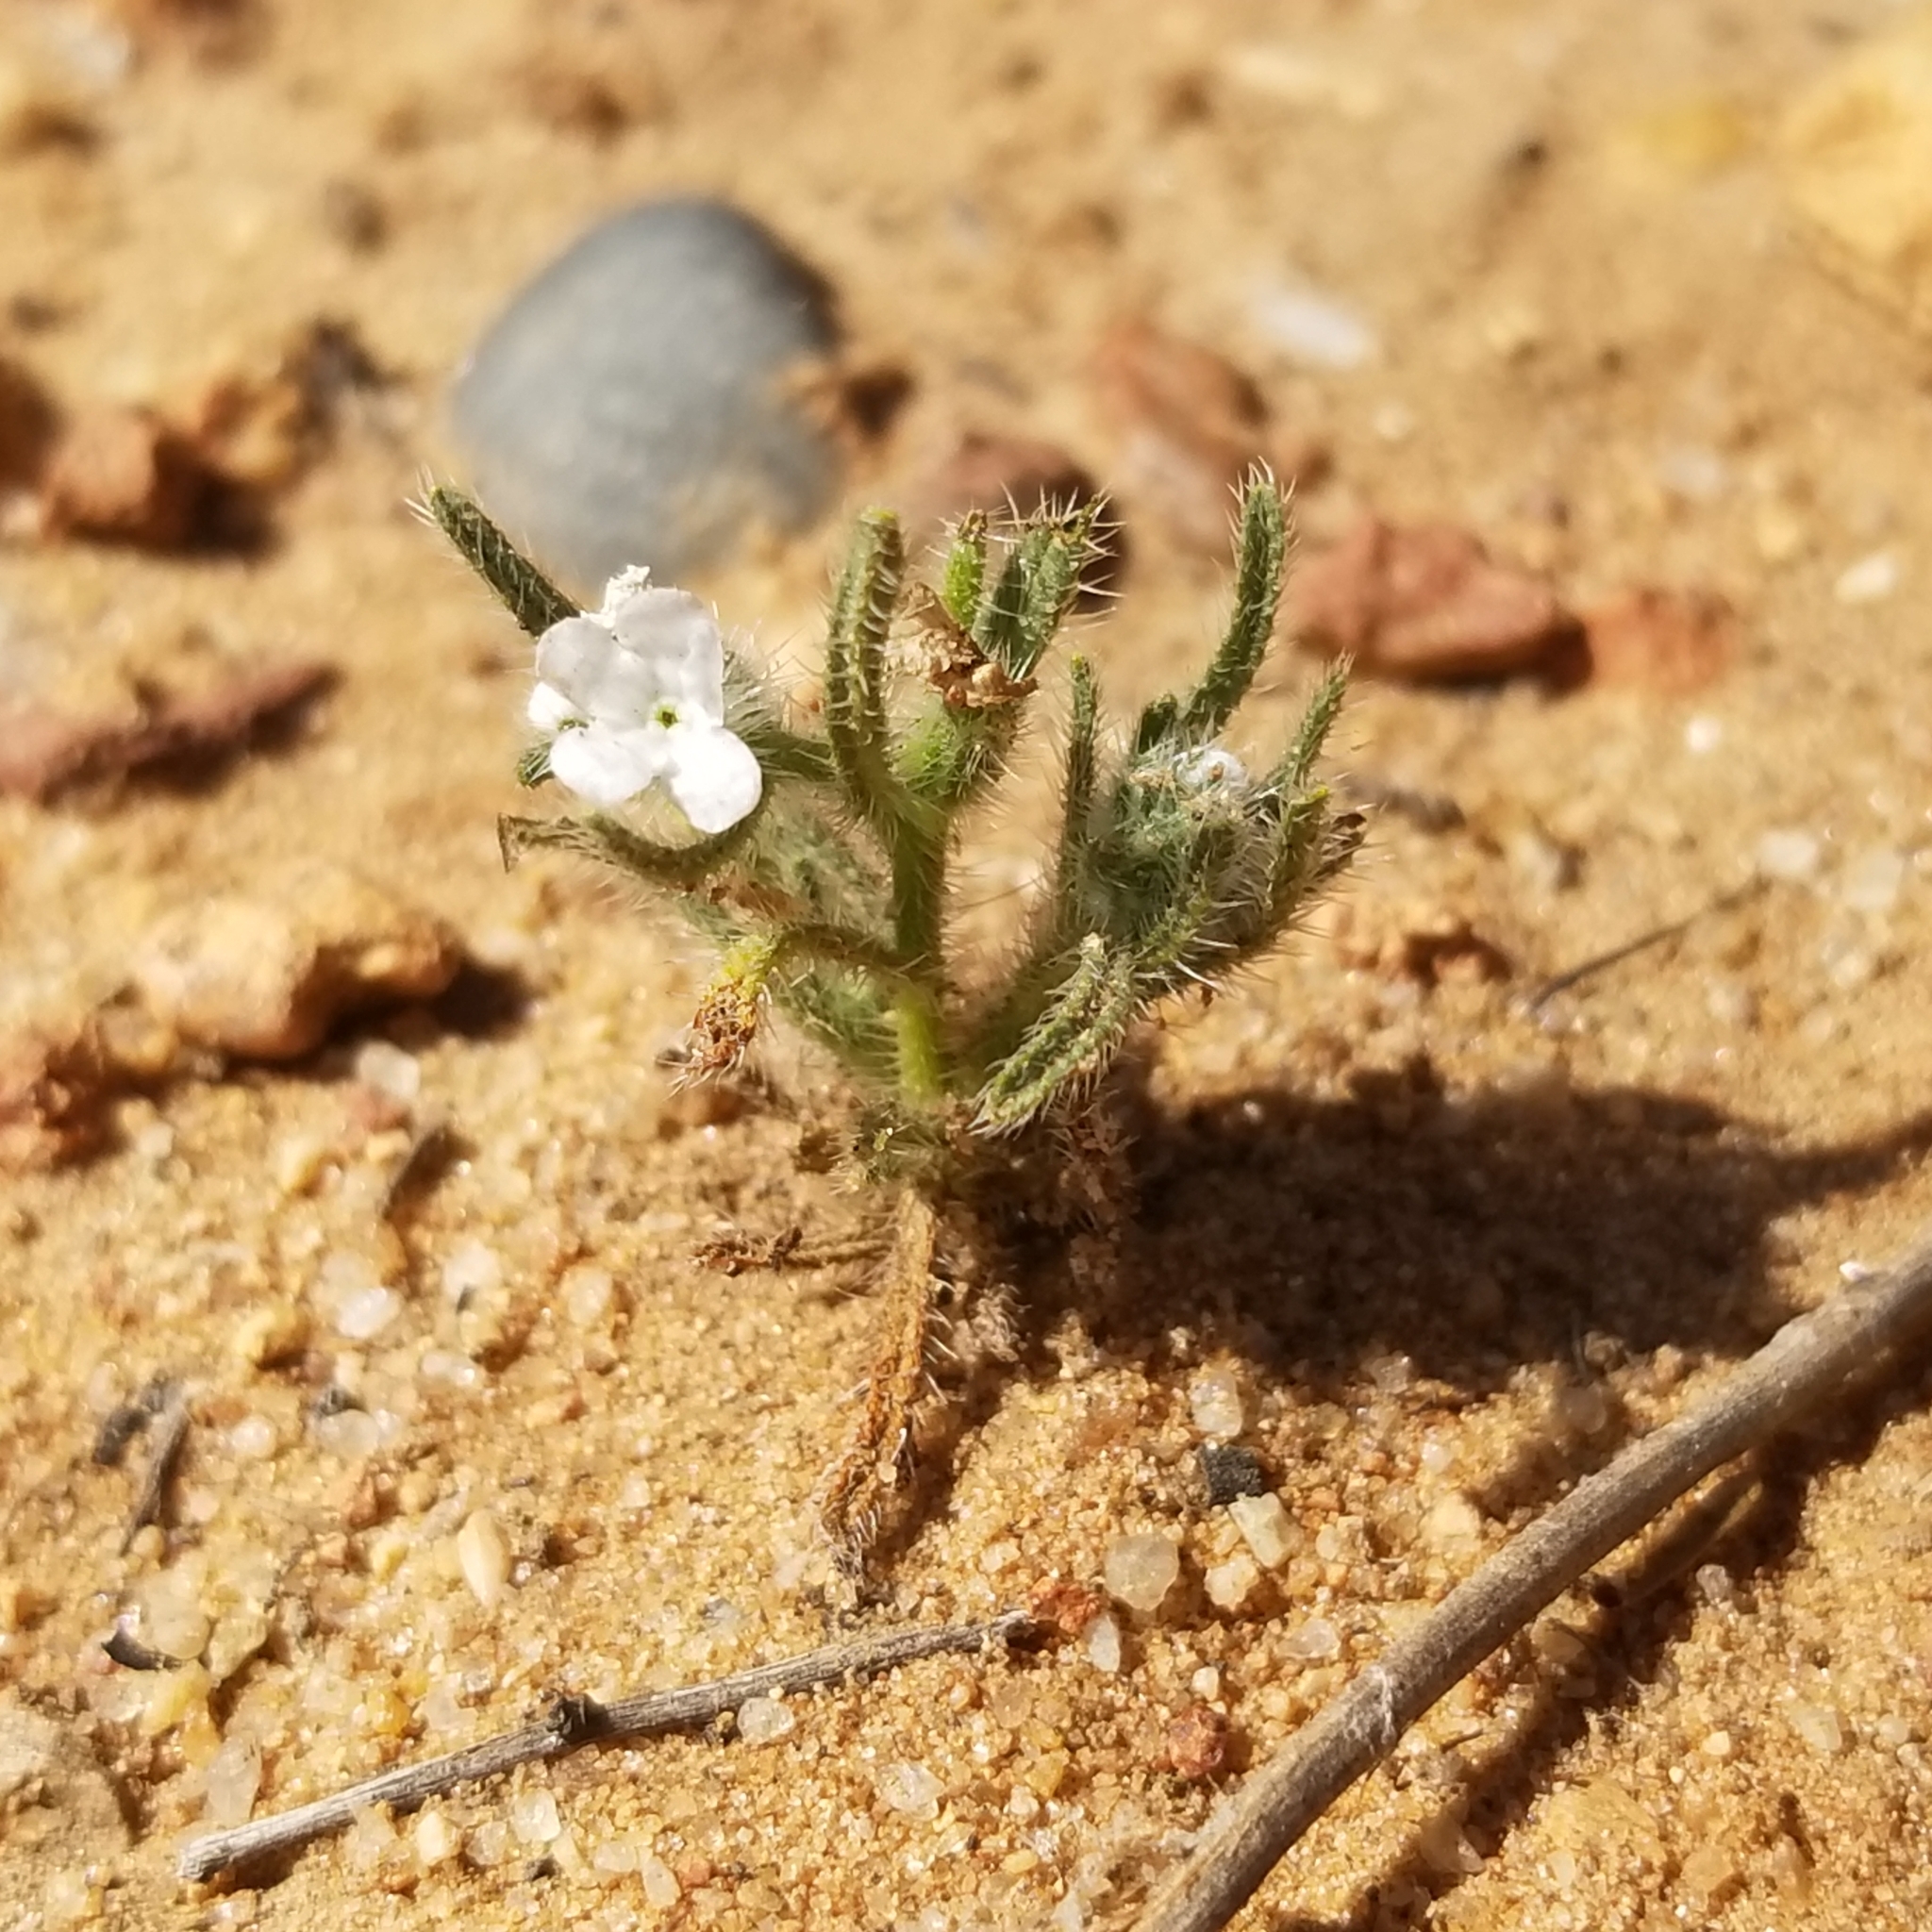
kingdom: Plantae
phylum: Tracheophyta
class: Magnoliopsida
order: Boraginales
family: Boraginaceae
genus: Johnstonella
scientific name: Johnstonella angustifolia
